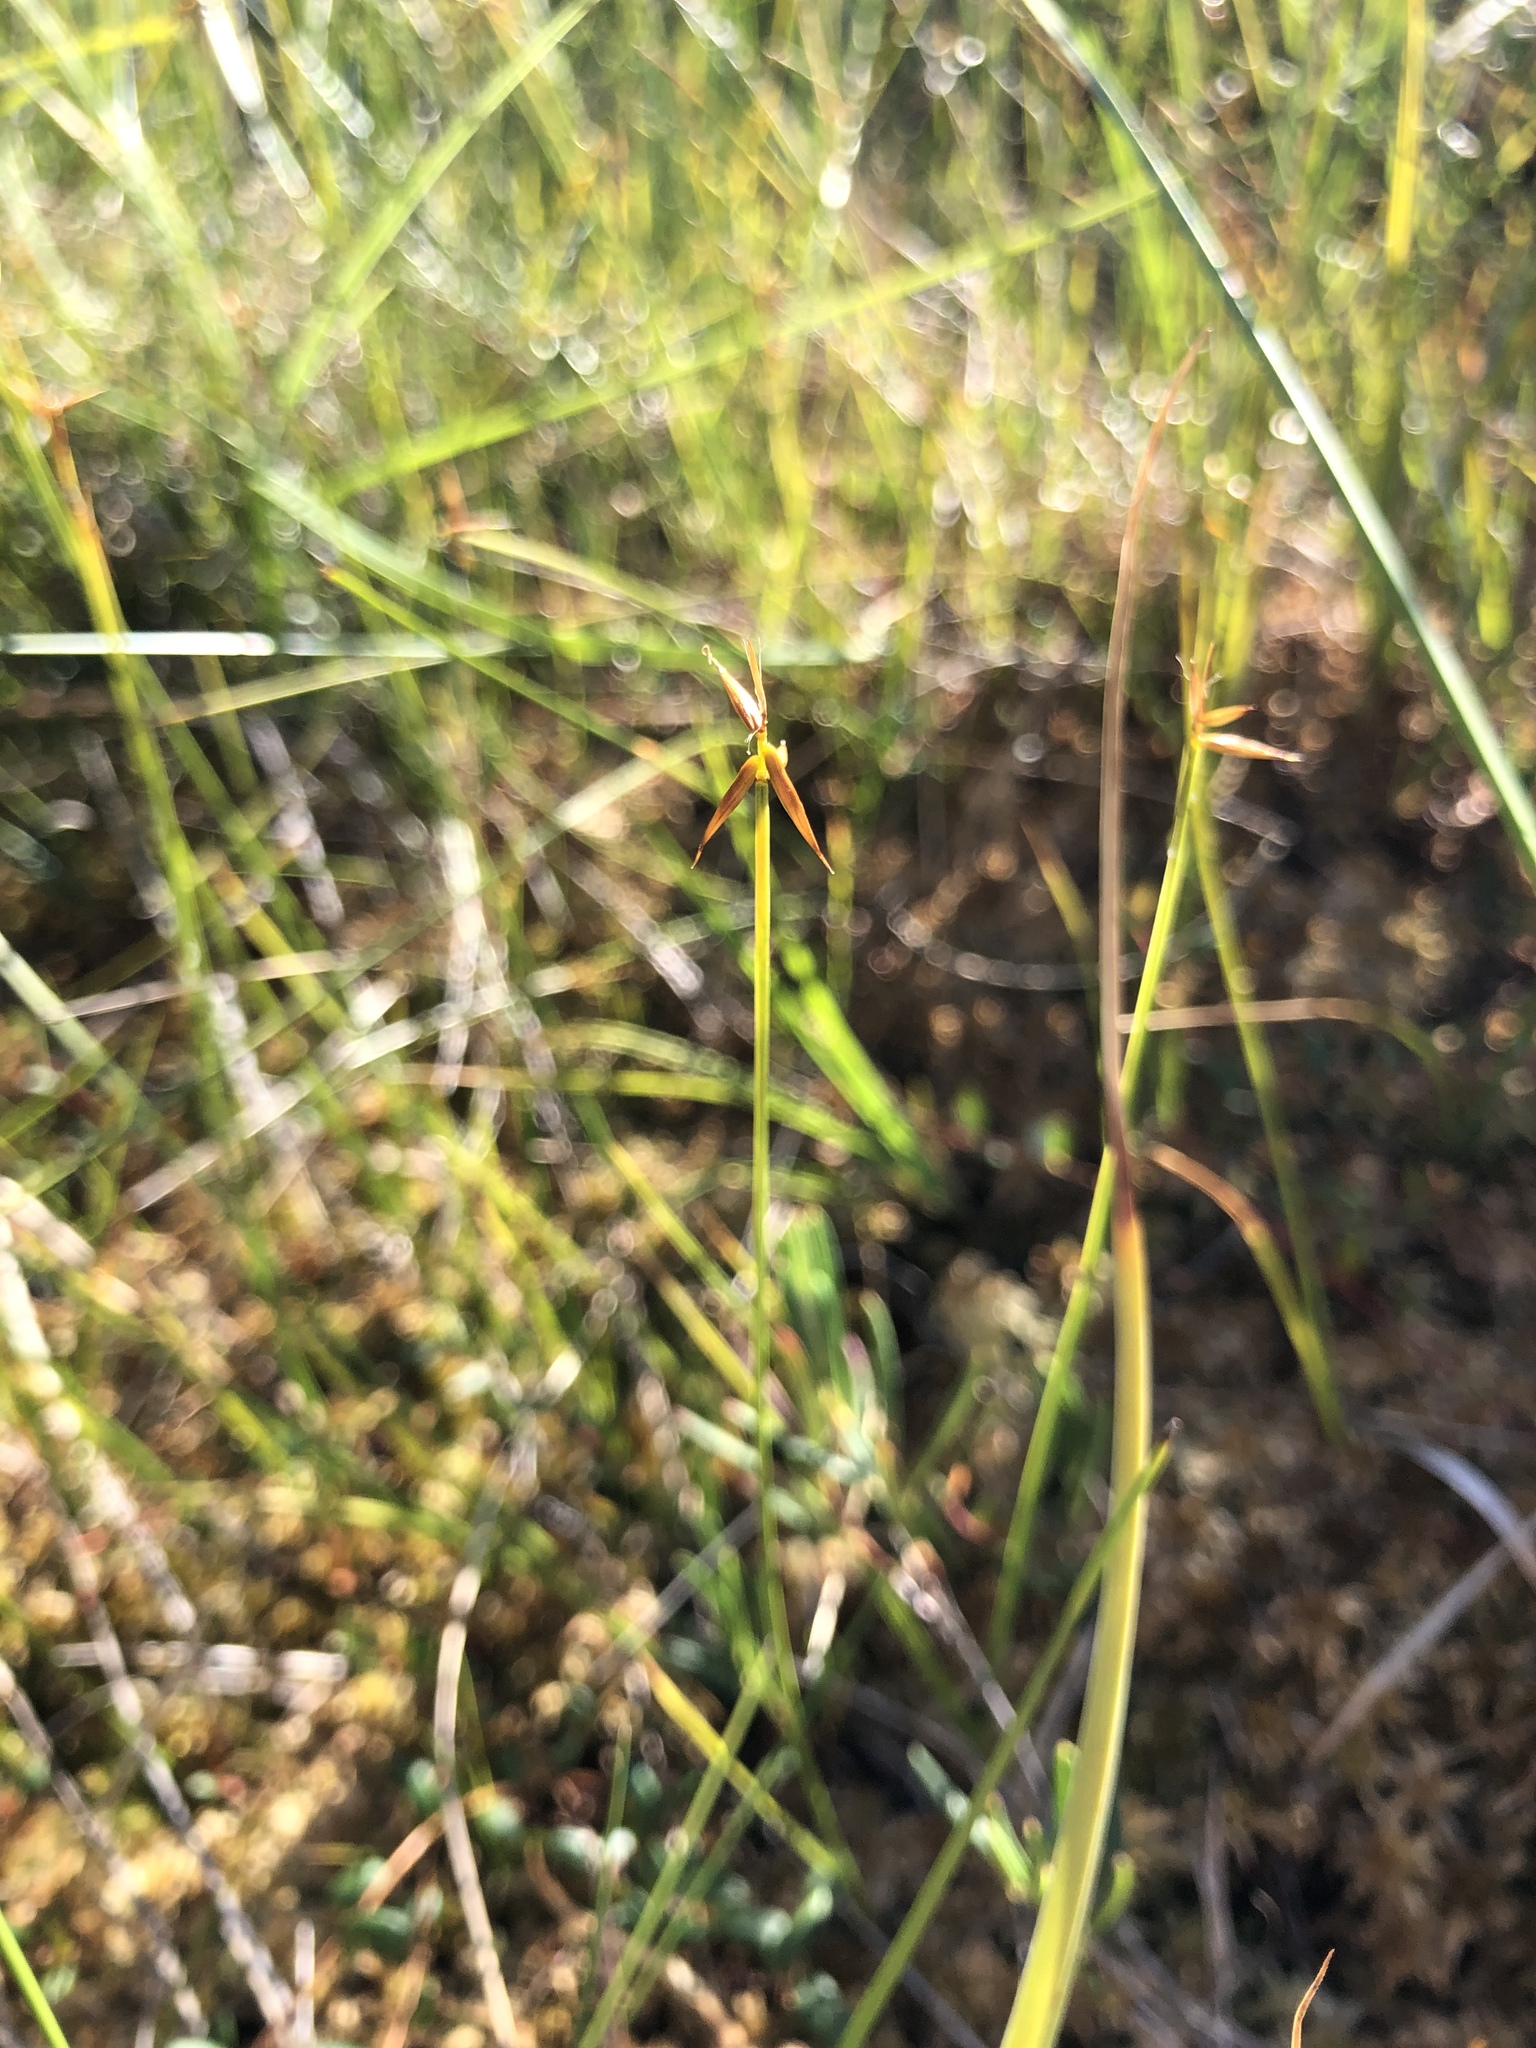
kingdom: Plantae
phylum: Tracheophyta
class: Liliopsida
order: Poales
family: Cyperaceae
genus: Carex
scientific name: Carex pauciflora
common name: Few-flowered sedge
